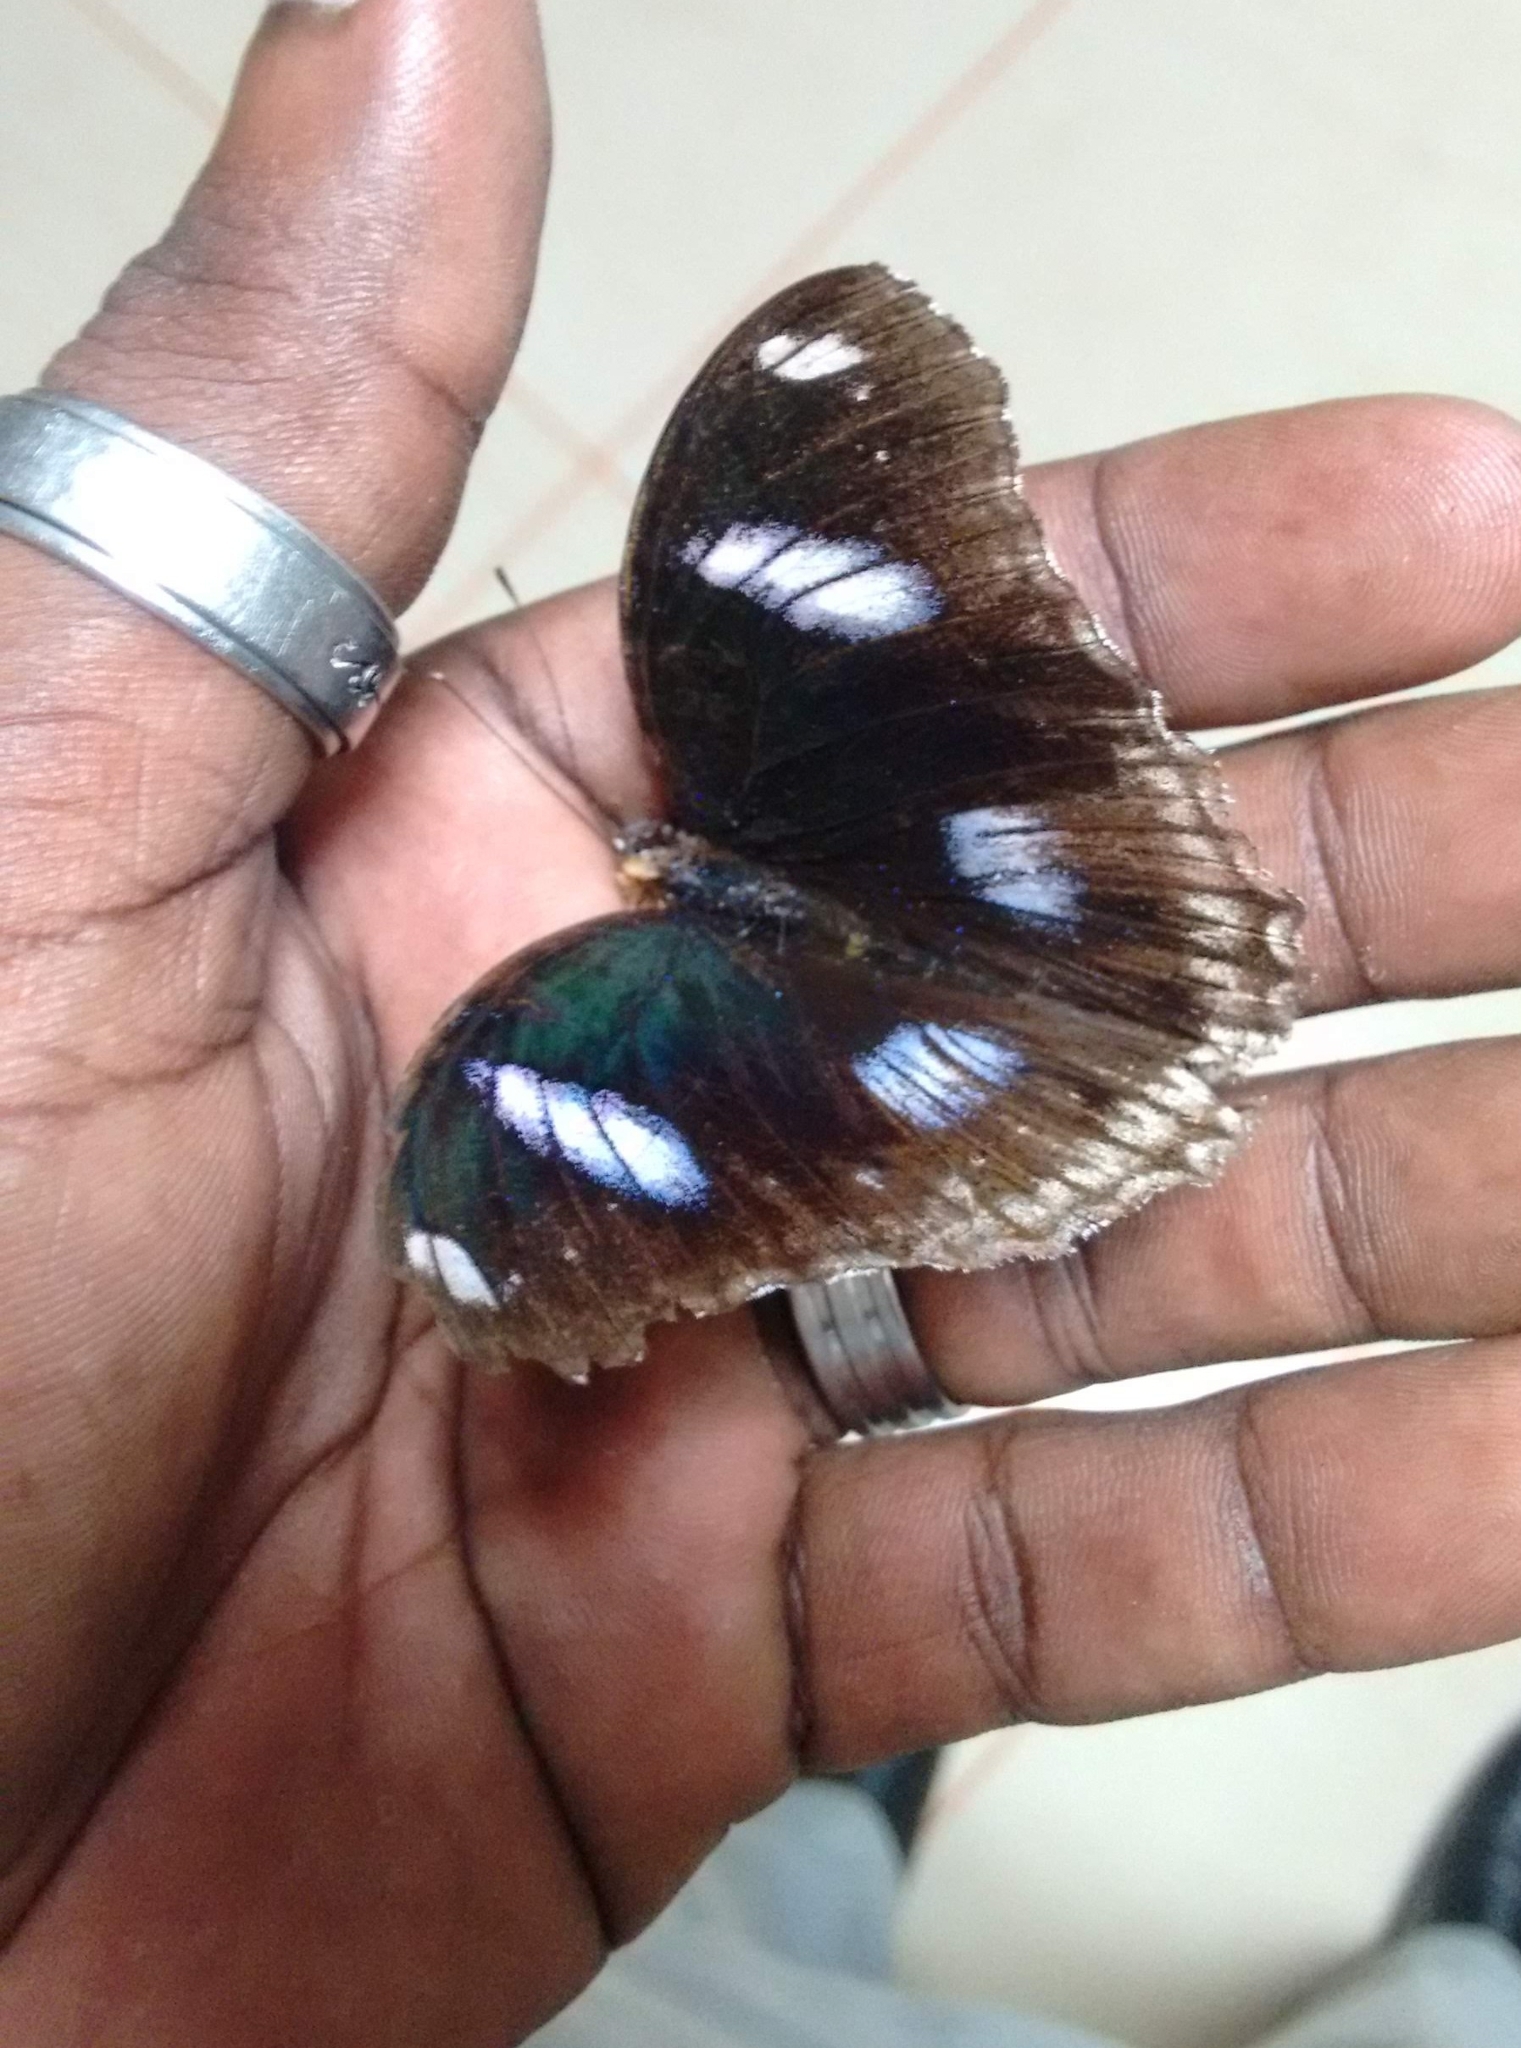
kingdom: Animalia
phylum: Arthropoda
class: Insecta
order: Lepidoptera
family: Nymphalidae
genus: Hypolimnas
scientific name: Hypolimnas bolina
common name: Great eggfly
